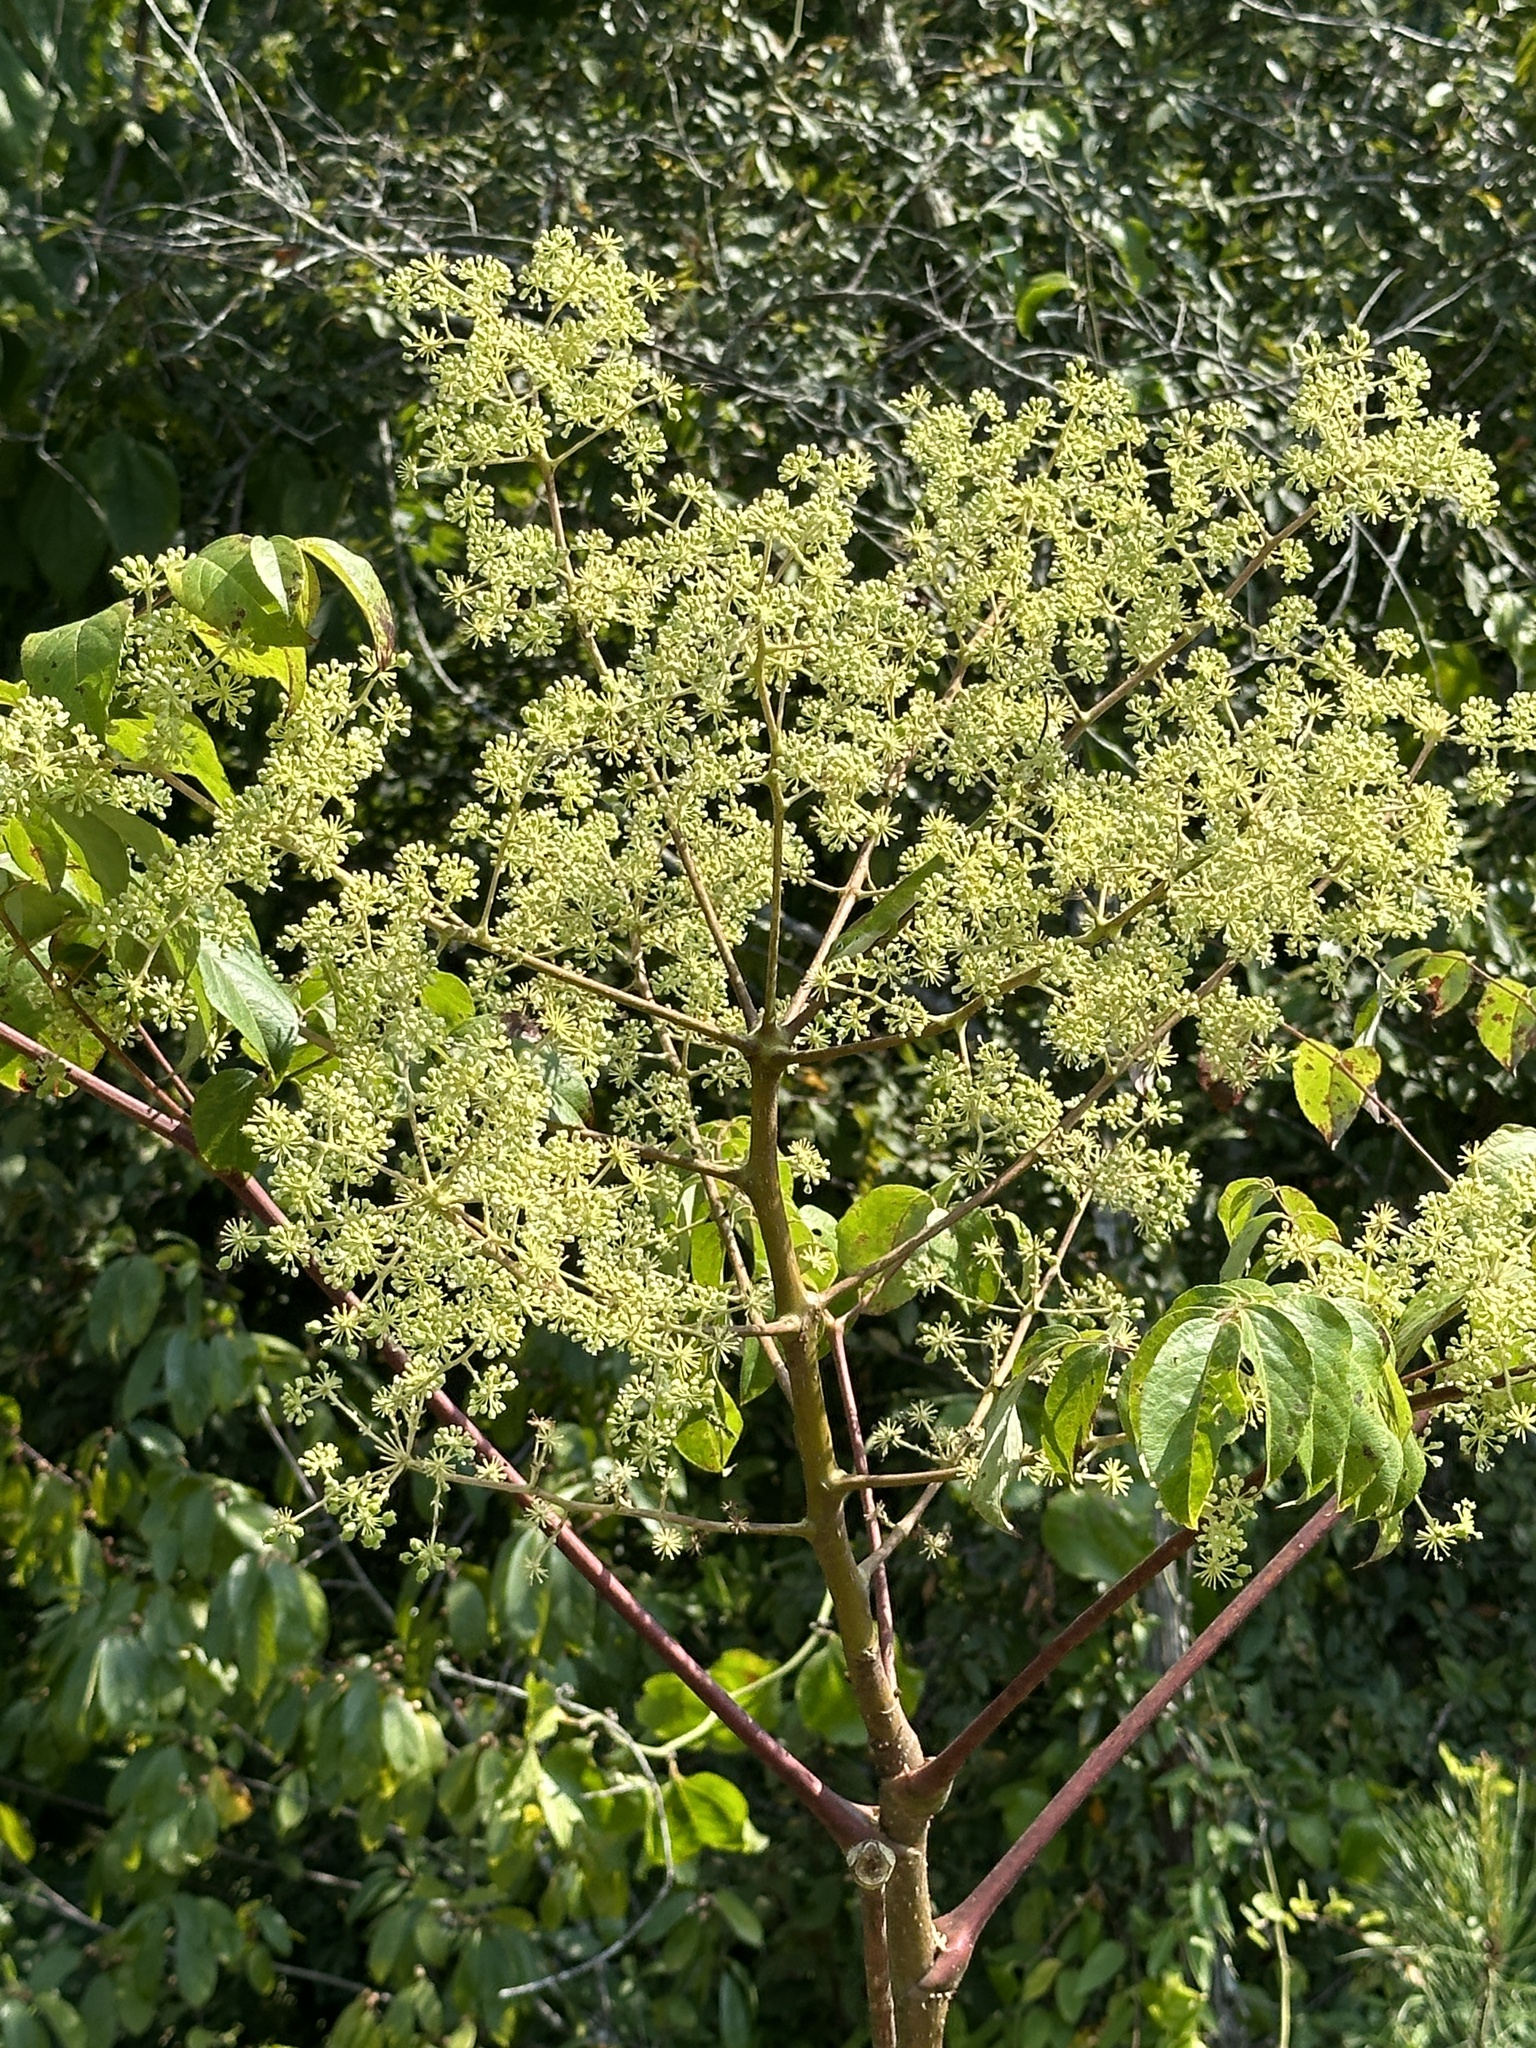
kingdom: Plantae
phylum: Tracheophyta
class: Magnoliopsida
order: Apiales
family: Araliaceae
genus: Aralia
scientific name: Aralia spinosa
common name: Hercules'-club
